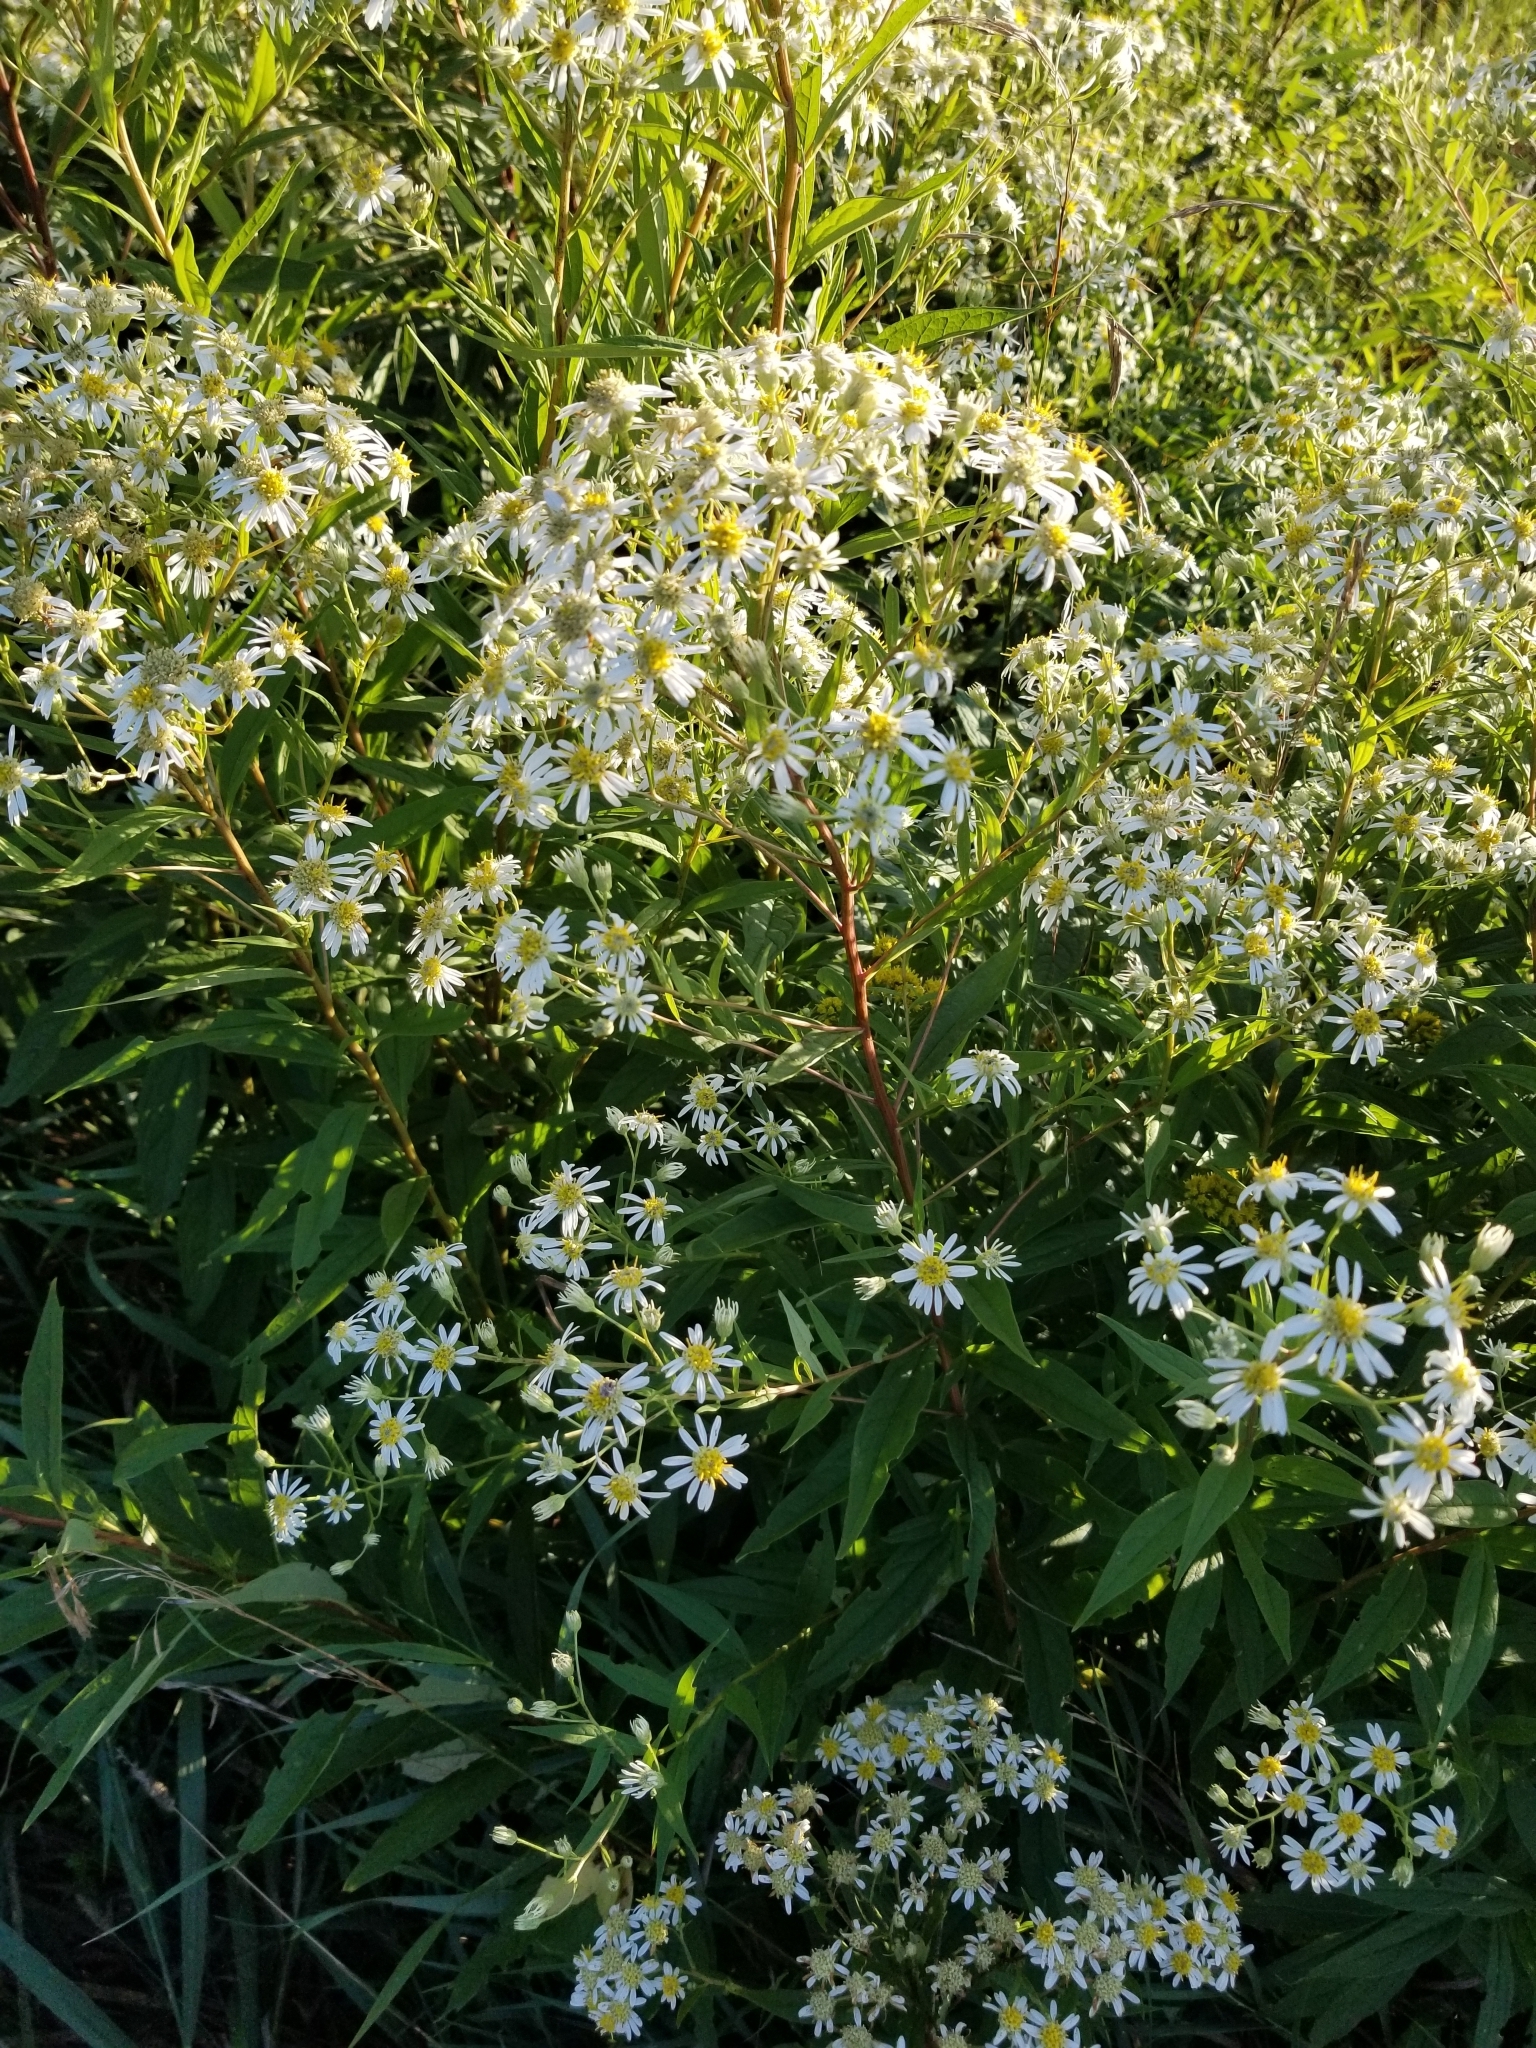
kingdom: Plantae
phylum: Tracheophyta
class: Magnoliopsida
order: Asterales
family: Asteraceae
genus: Doellingeria
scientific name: Doellingeria umbellata
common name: Flat-top white aster
